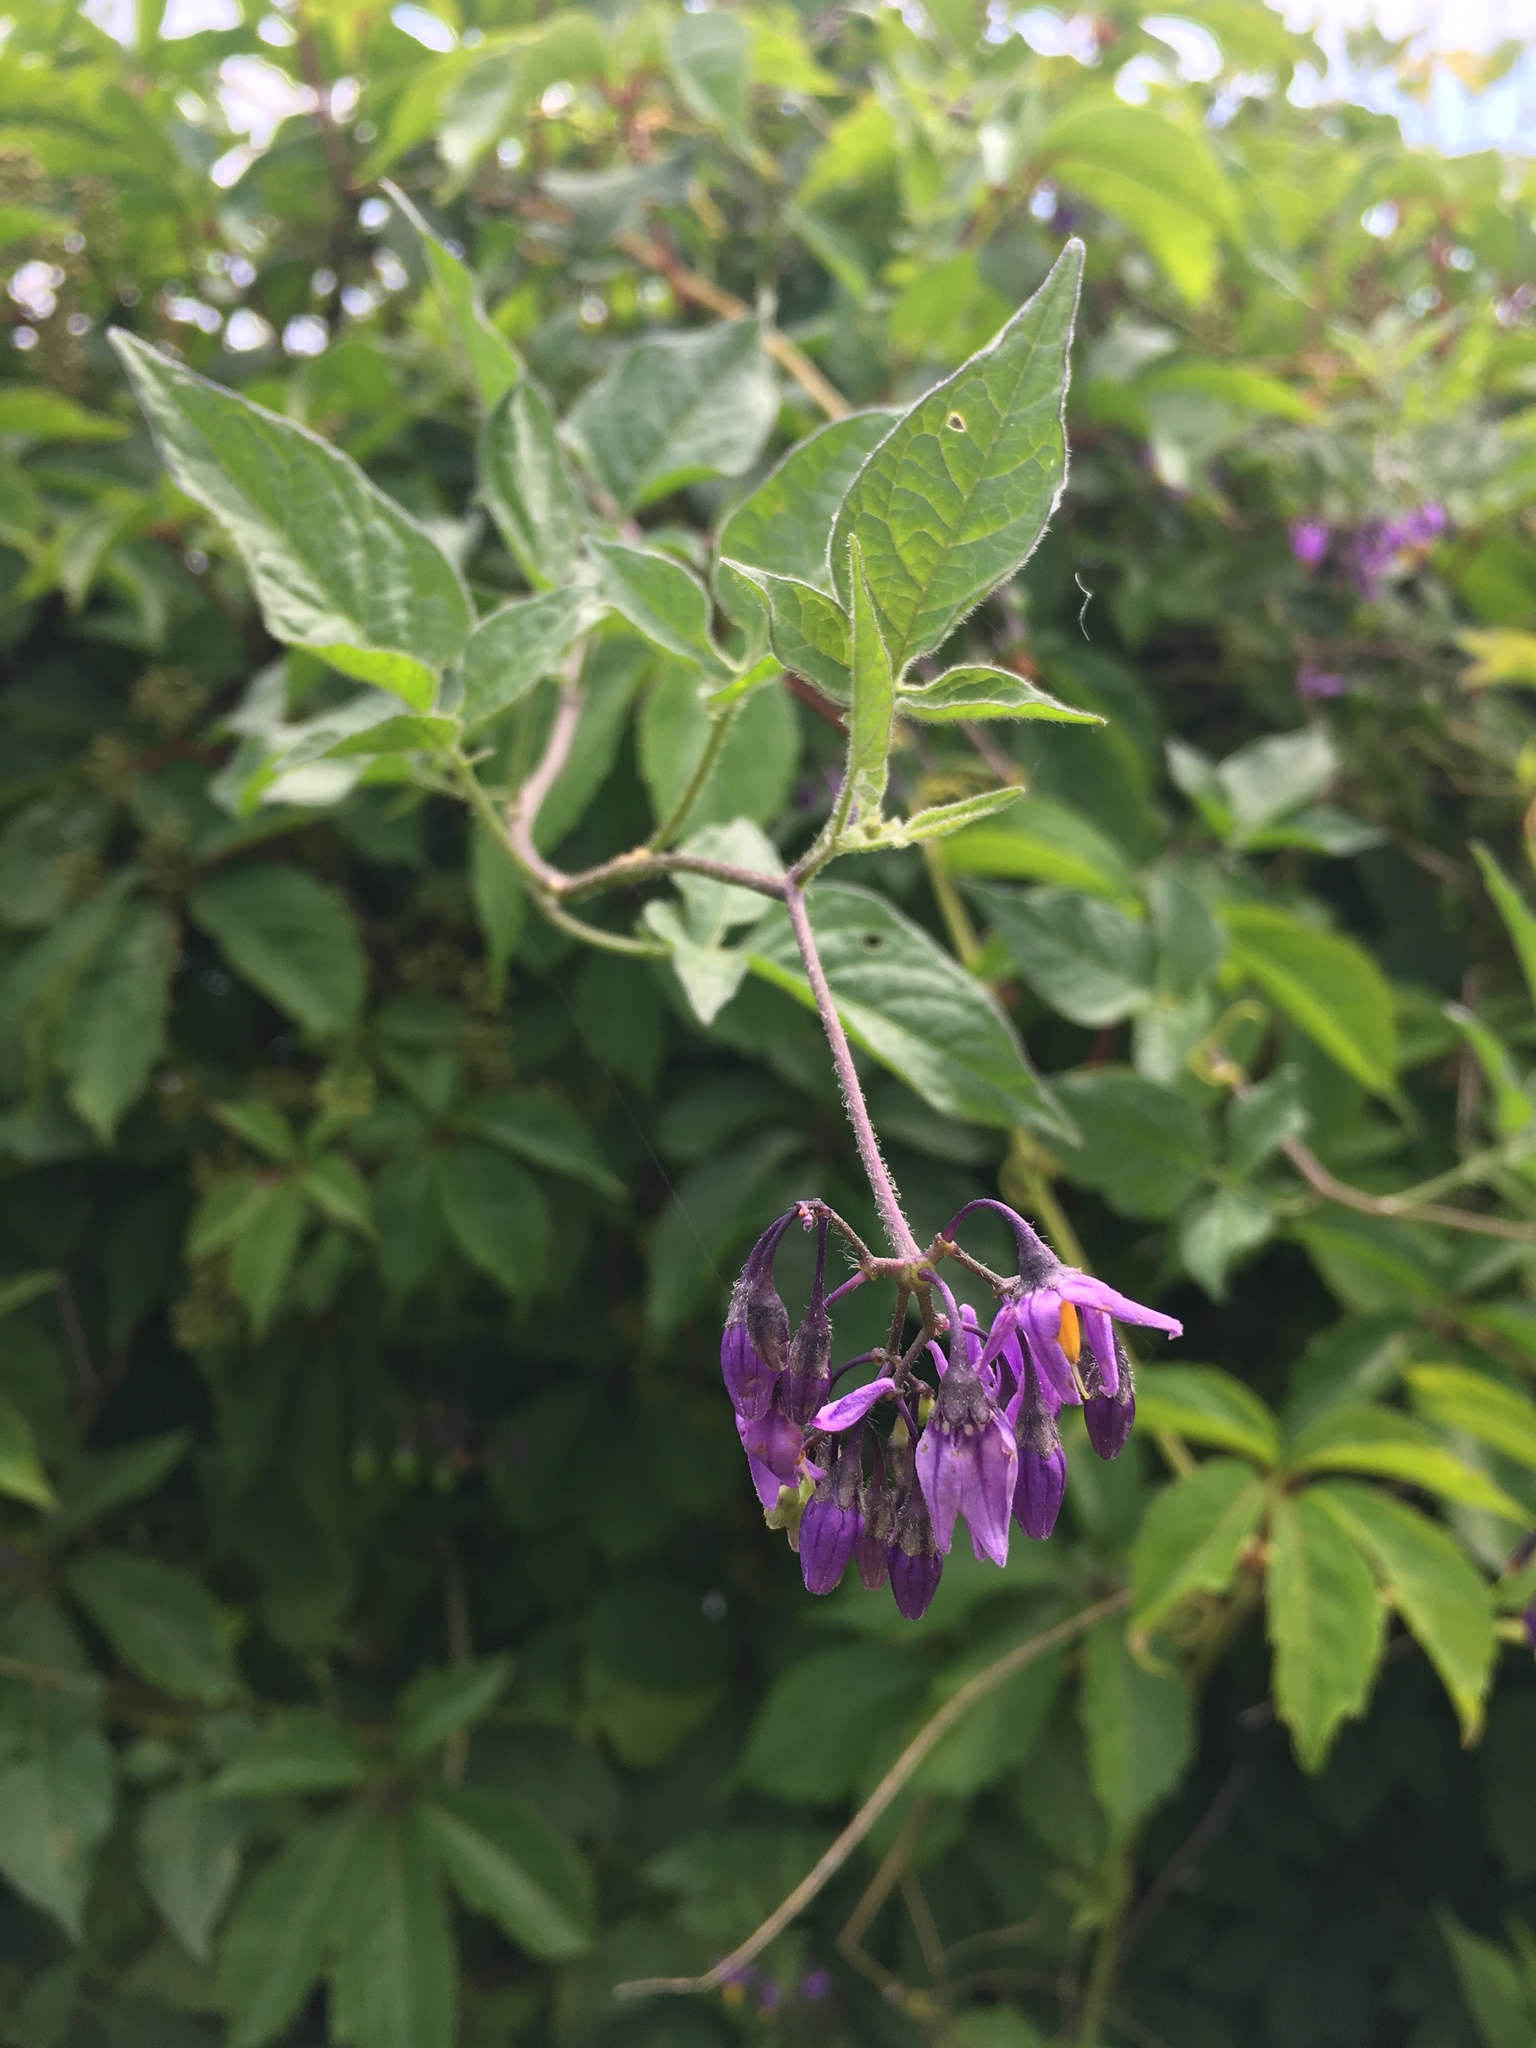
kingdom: Plantae
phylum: Tracheophyta
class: Magnoliopsida
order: Solanales
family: Solanaceae
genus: Solanum
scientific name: Solanum dulcamara
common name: Climbing nightshade
